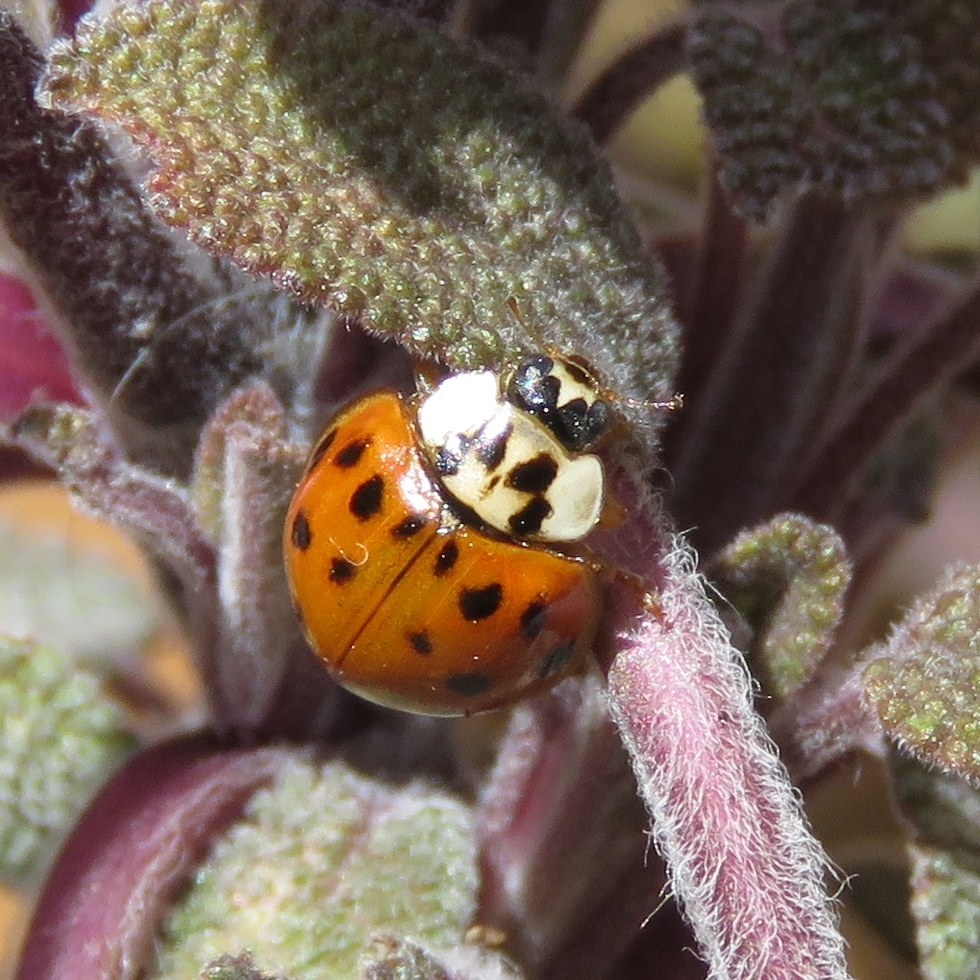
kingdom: Animalia
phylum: Arthropoda
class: Insecta
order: Coleoptera
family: Coccinellidae
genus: Harmonia
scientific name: Harmonia axyridis
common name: Harlequin ladybird
